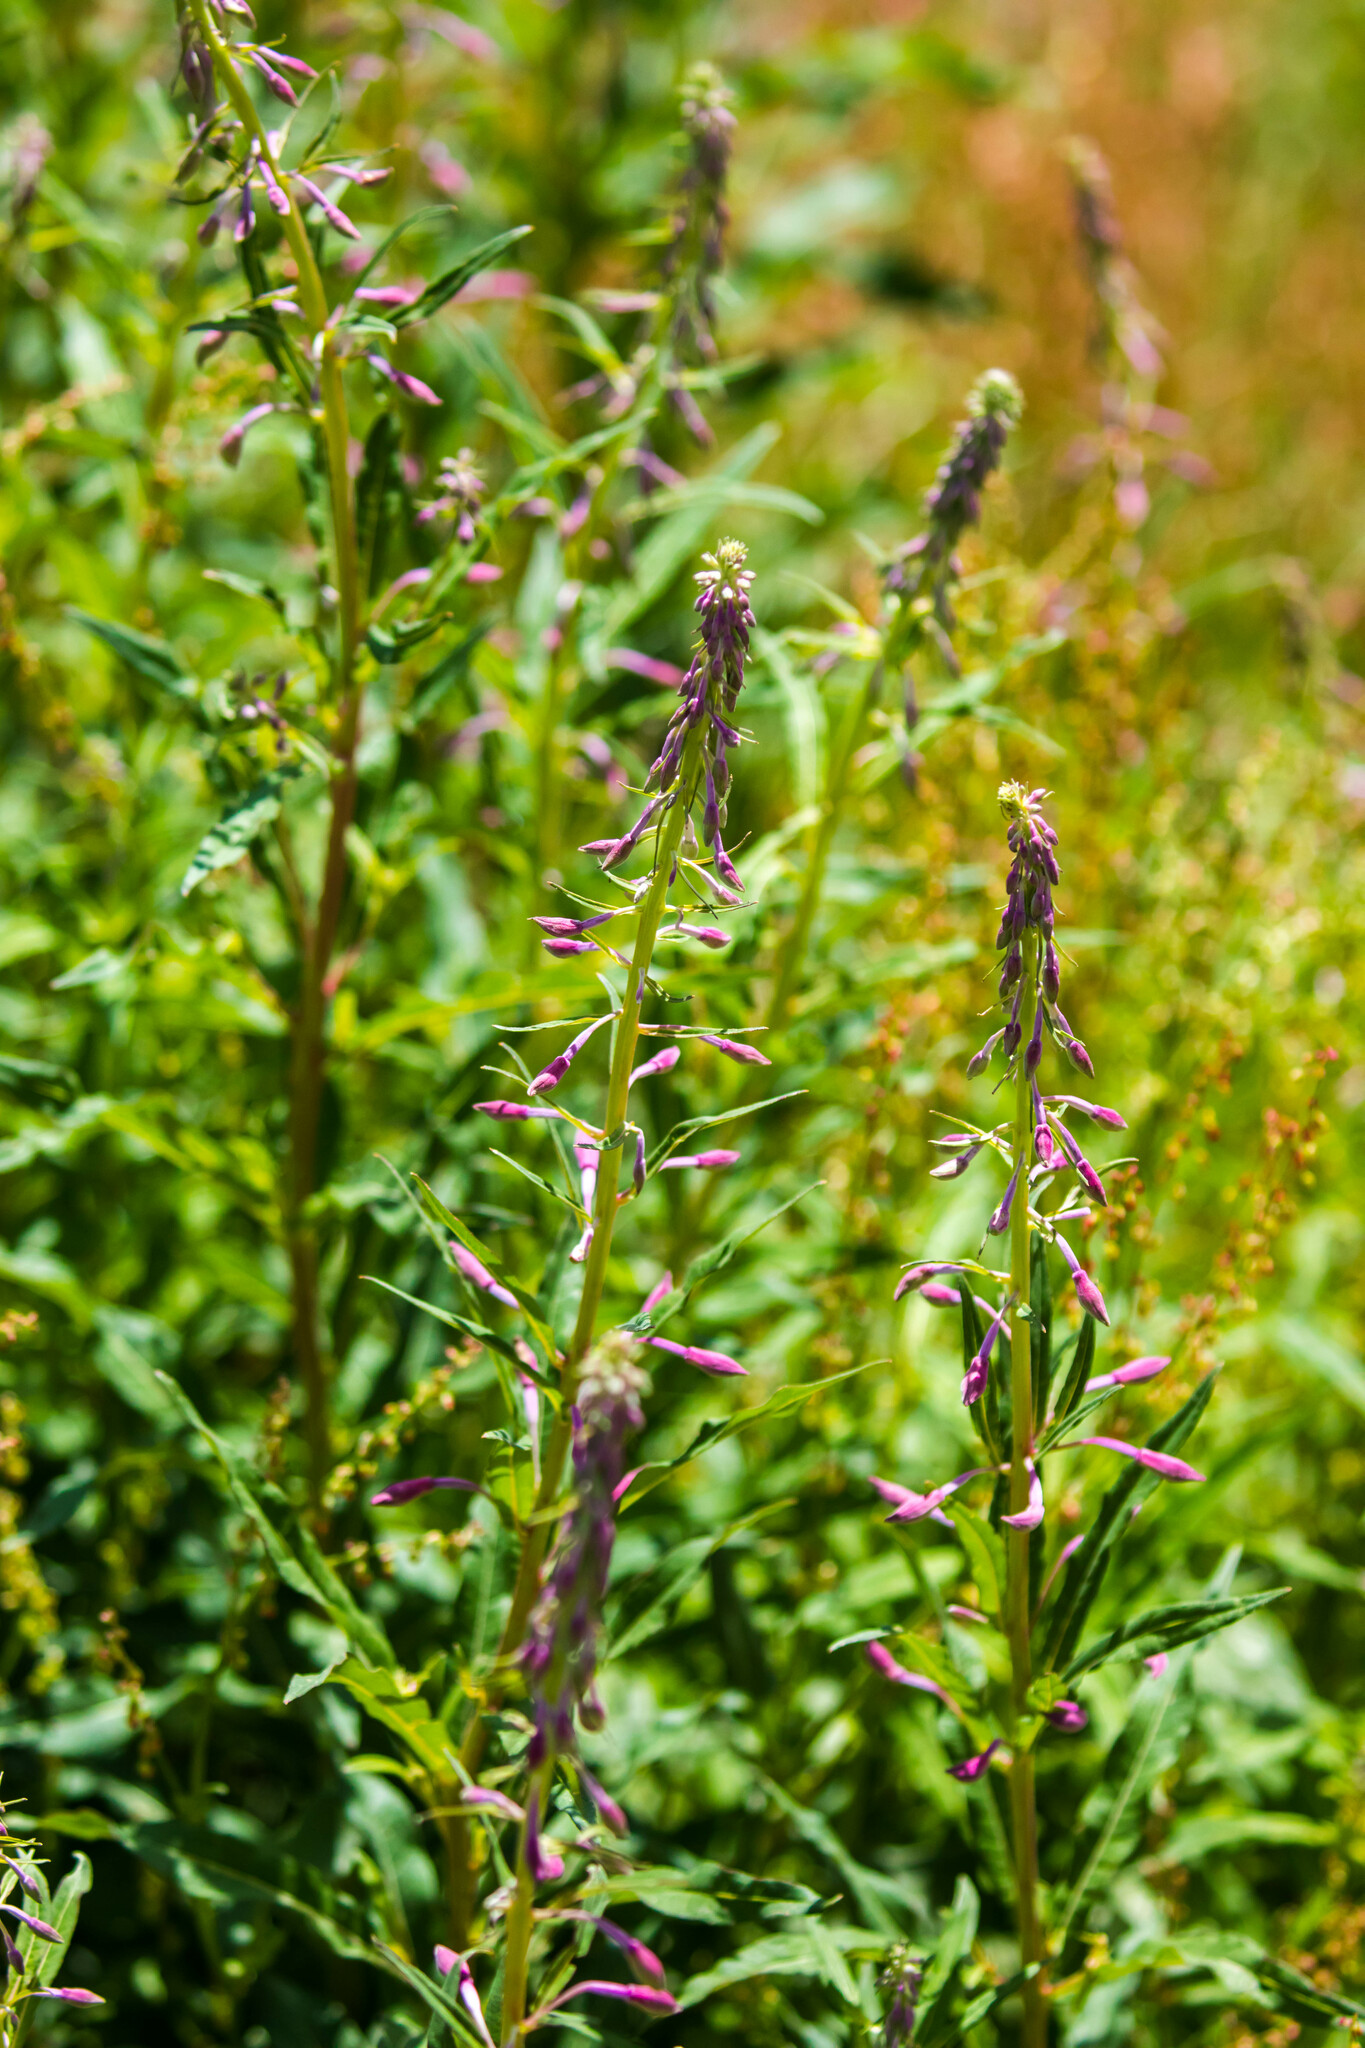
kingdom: Plantae
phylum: Tracheophyta
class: Magnoliopsida
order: Myrtales
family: Onagraceae
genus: Chamaenerion
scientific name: Chamaenerion angustifolium
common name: Fireweed
